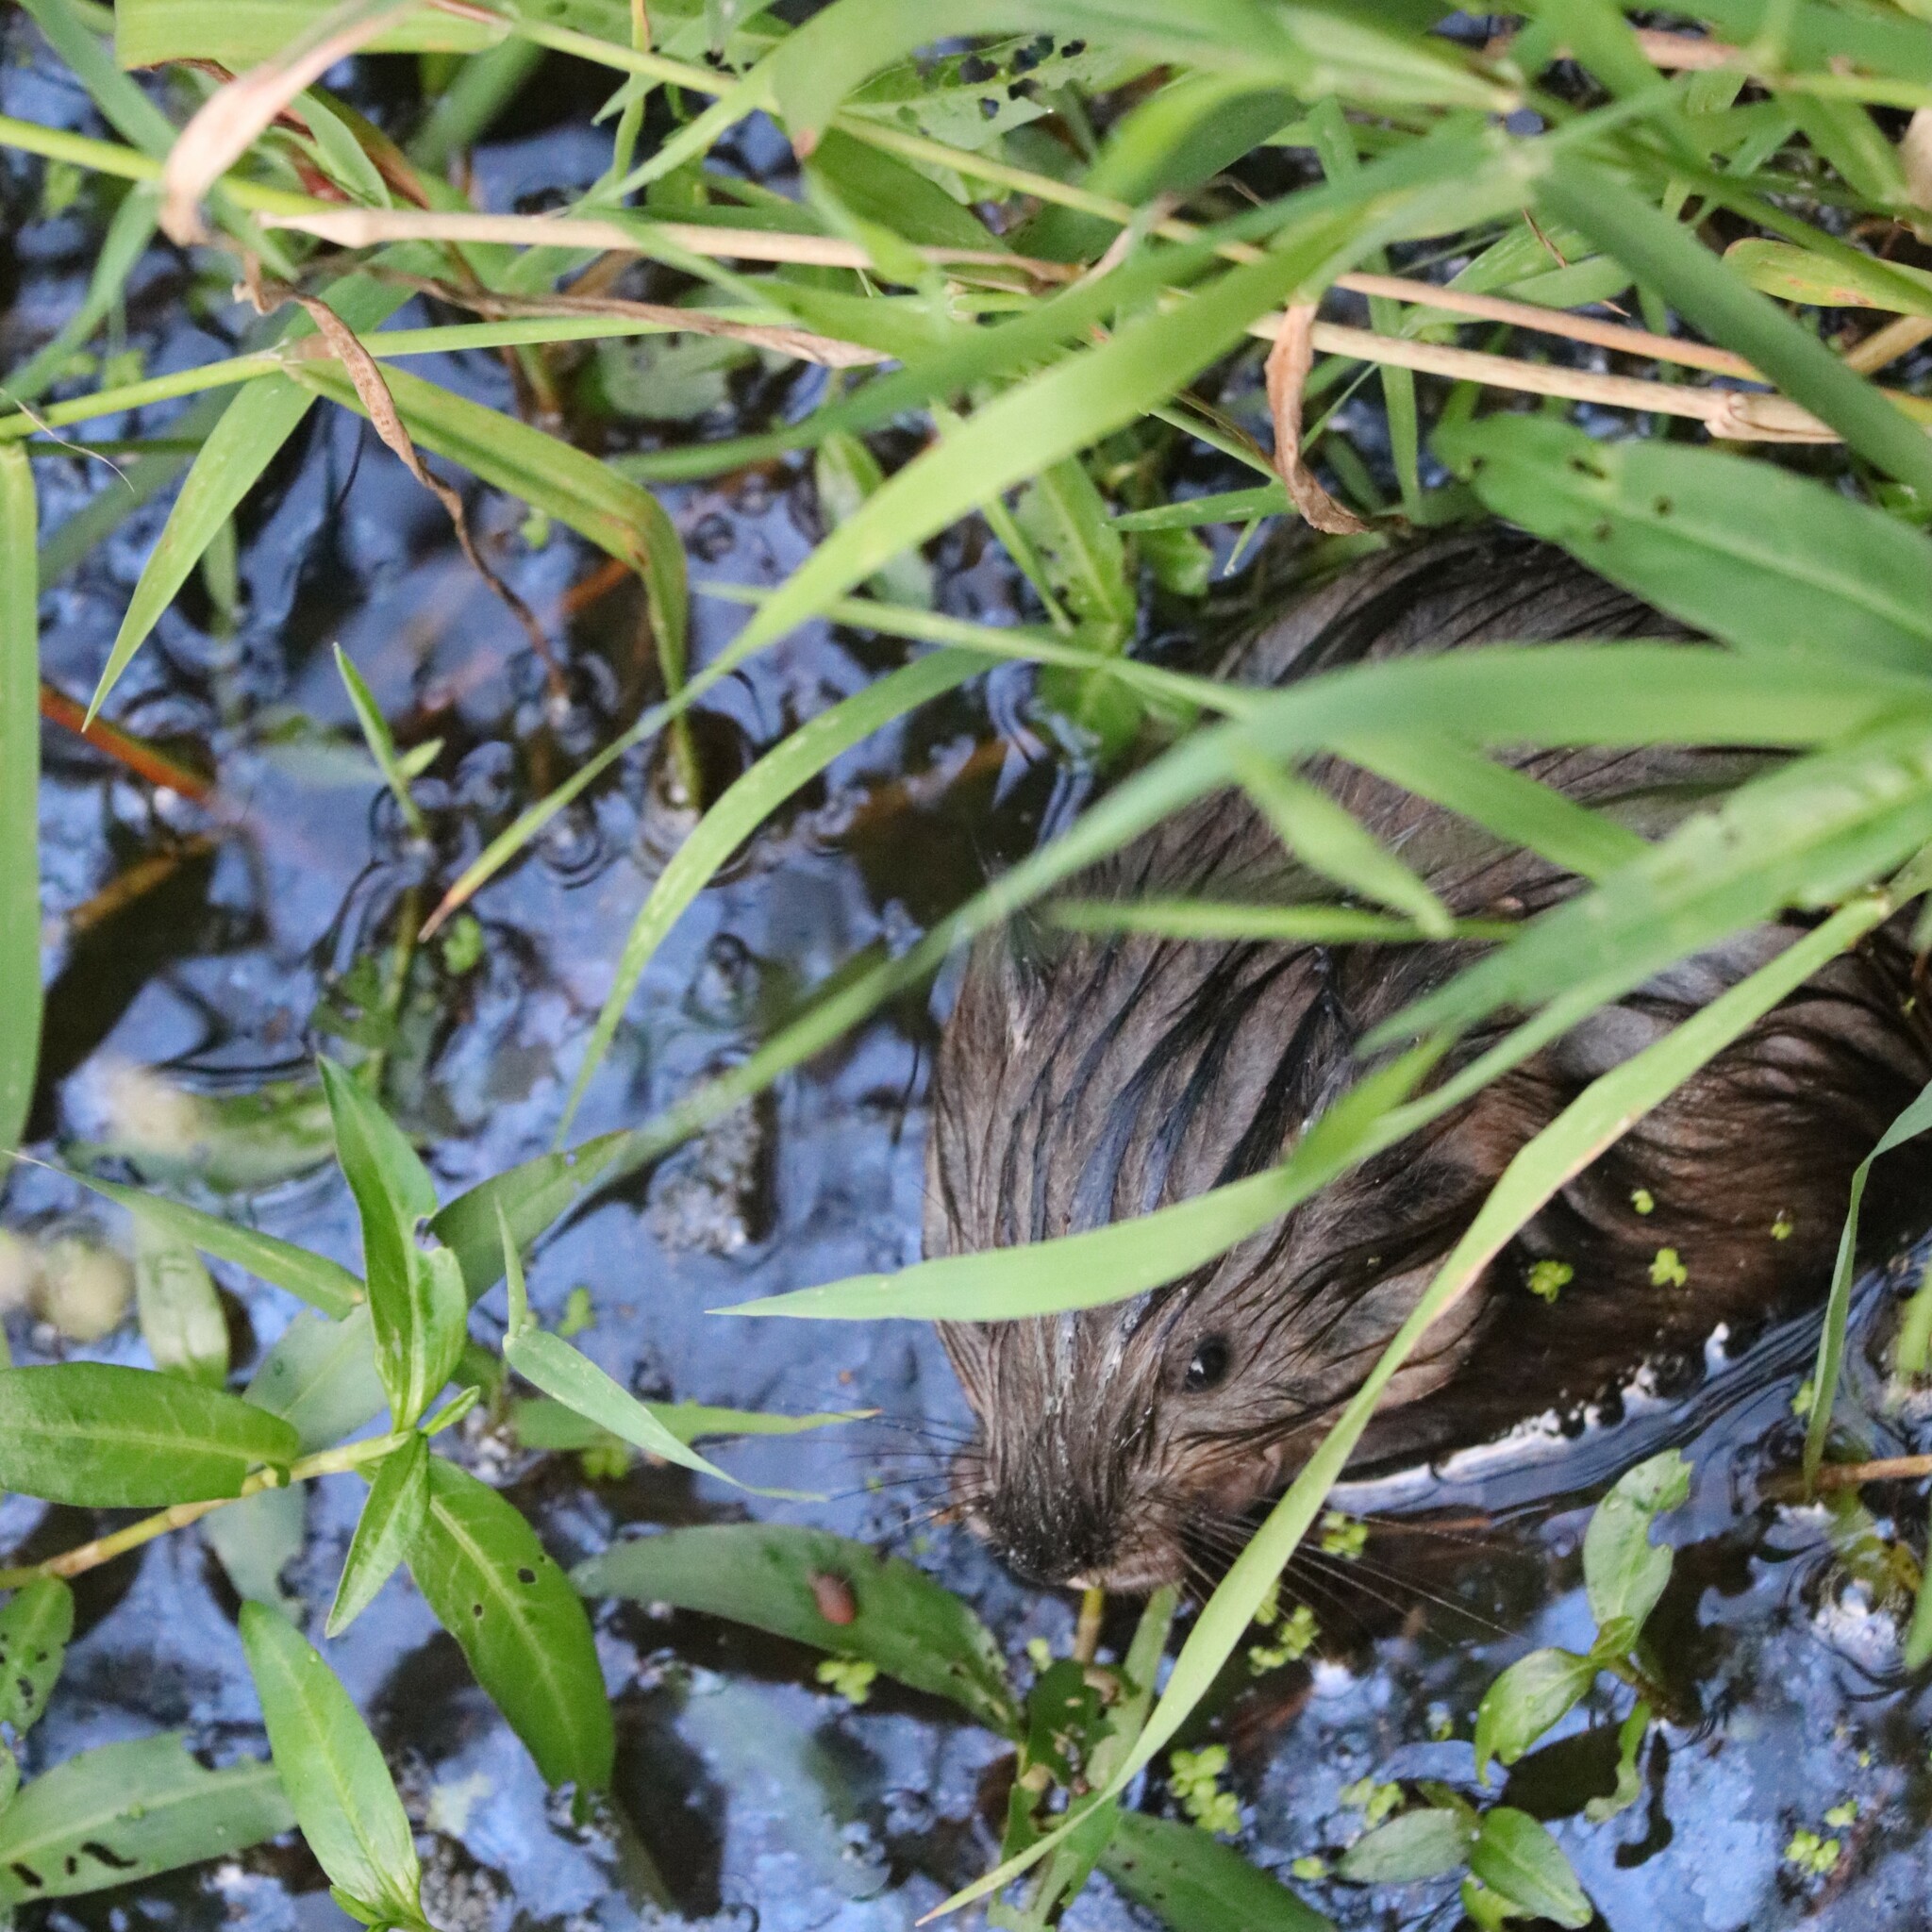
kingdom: Animalia
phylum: Chordata
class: Mammalia
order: Rodentia
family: Cricetidae
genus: Ondatra
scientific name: Ondatra zibethicus
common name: Muskrat
